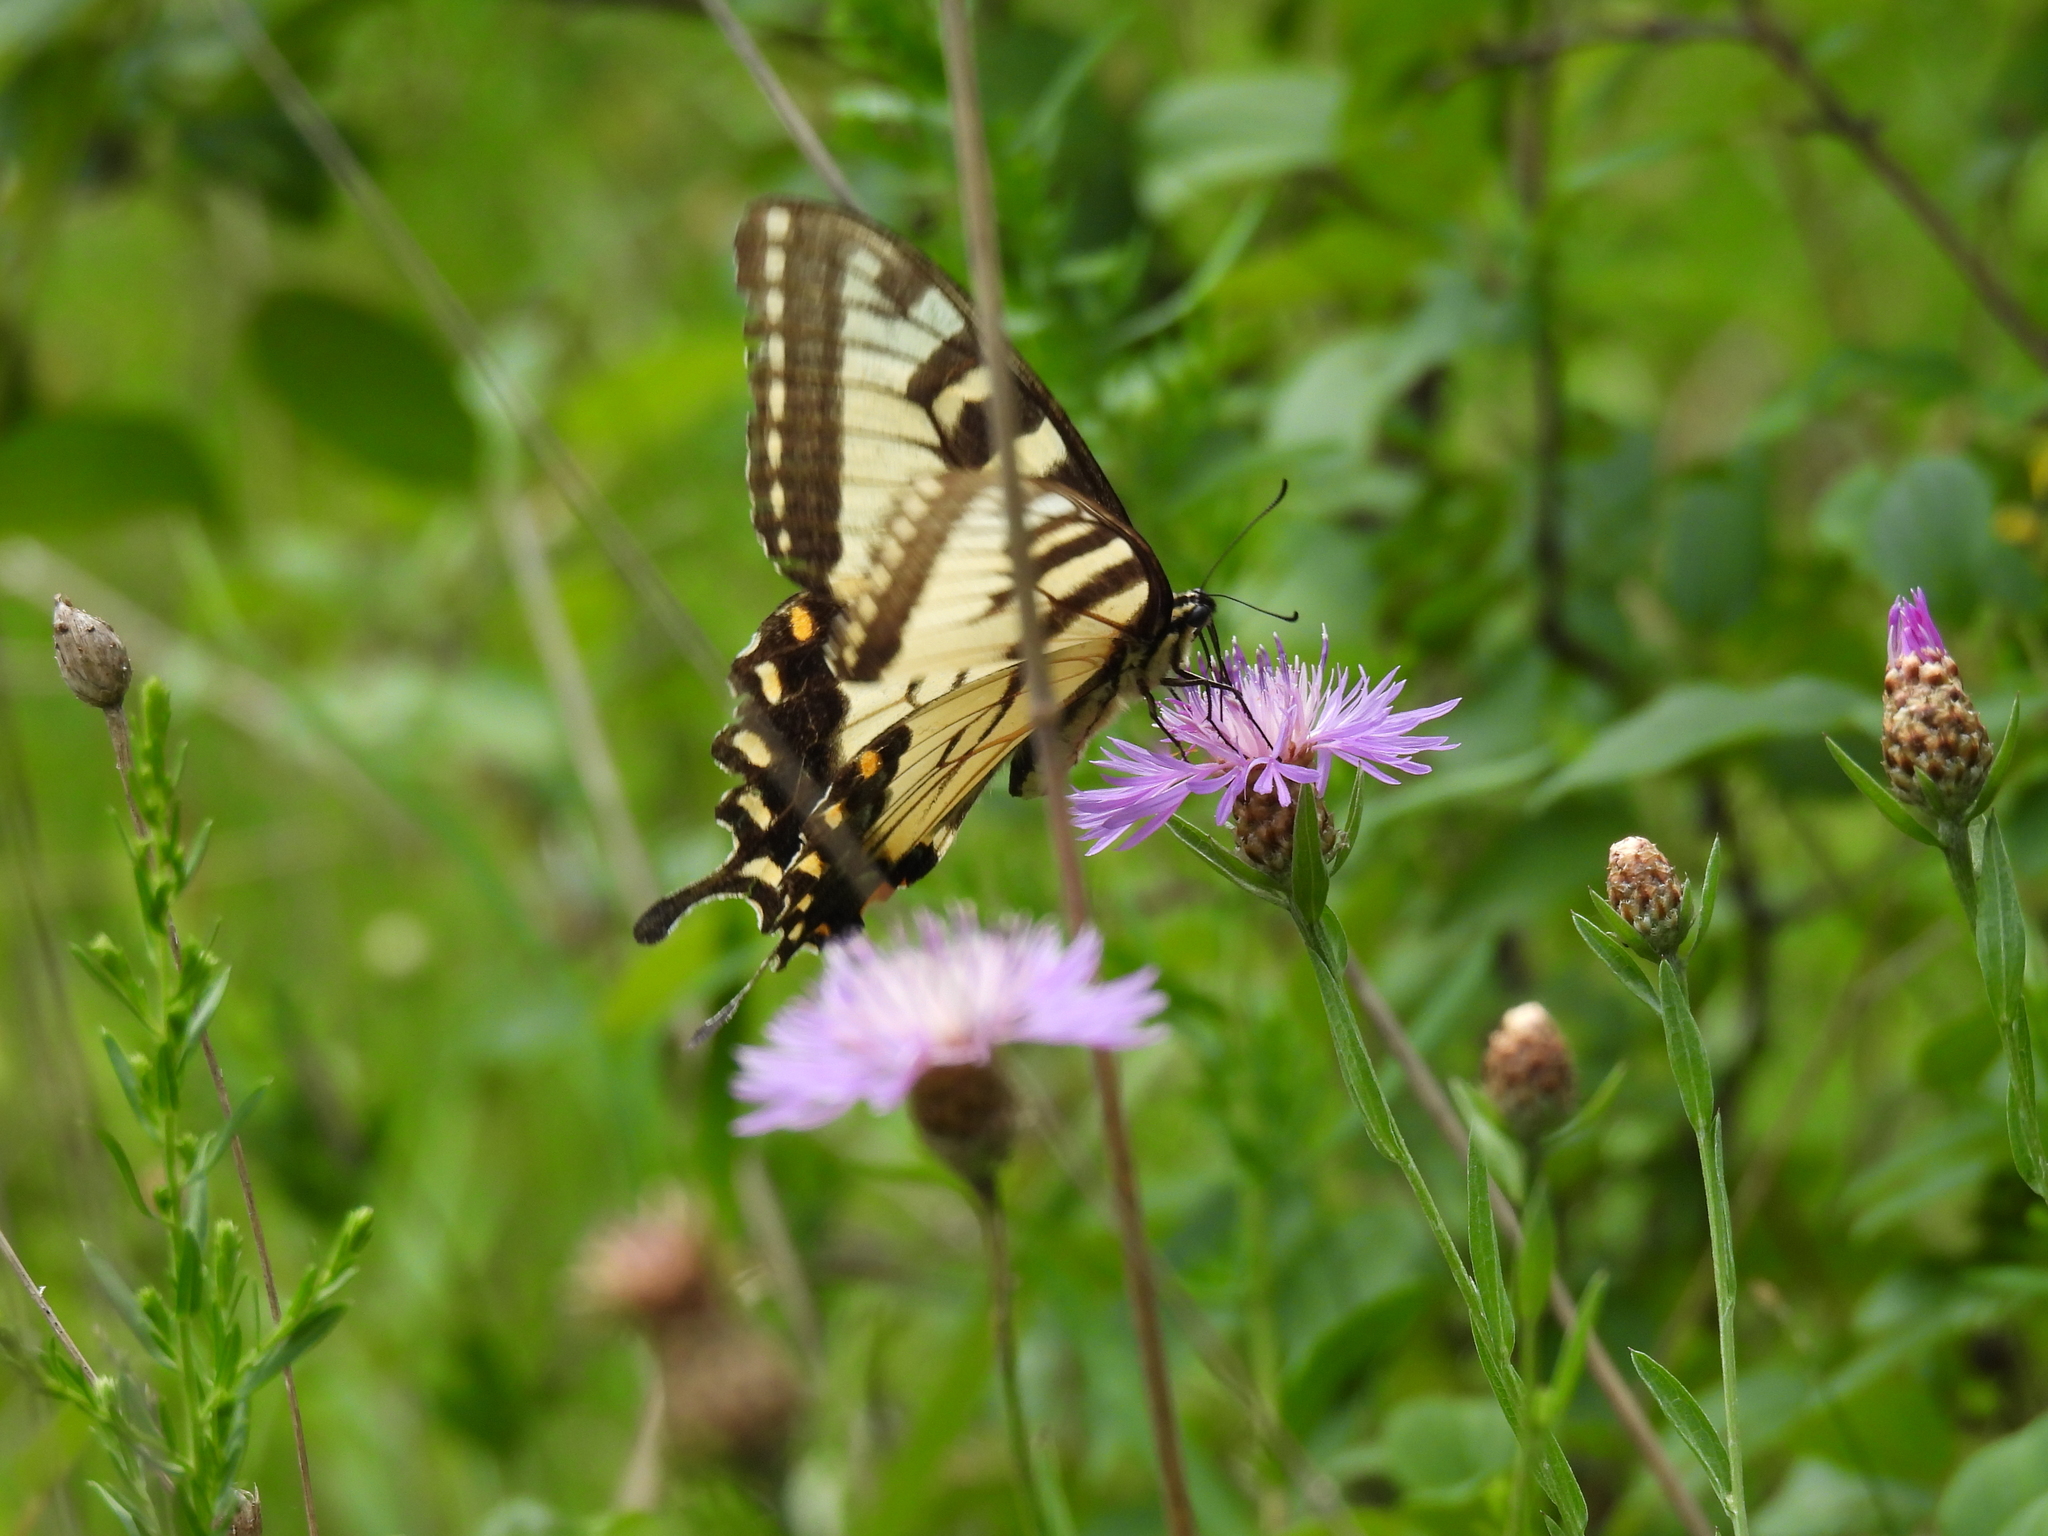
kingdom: Animalia
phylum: Arthropoda
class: Insecta
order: Lepidoptera
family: Papilionidae
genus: Pterourus
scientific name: Pterourus
